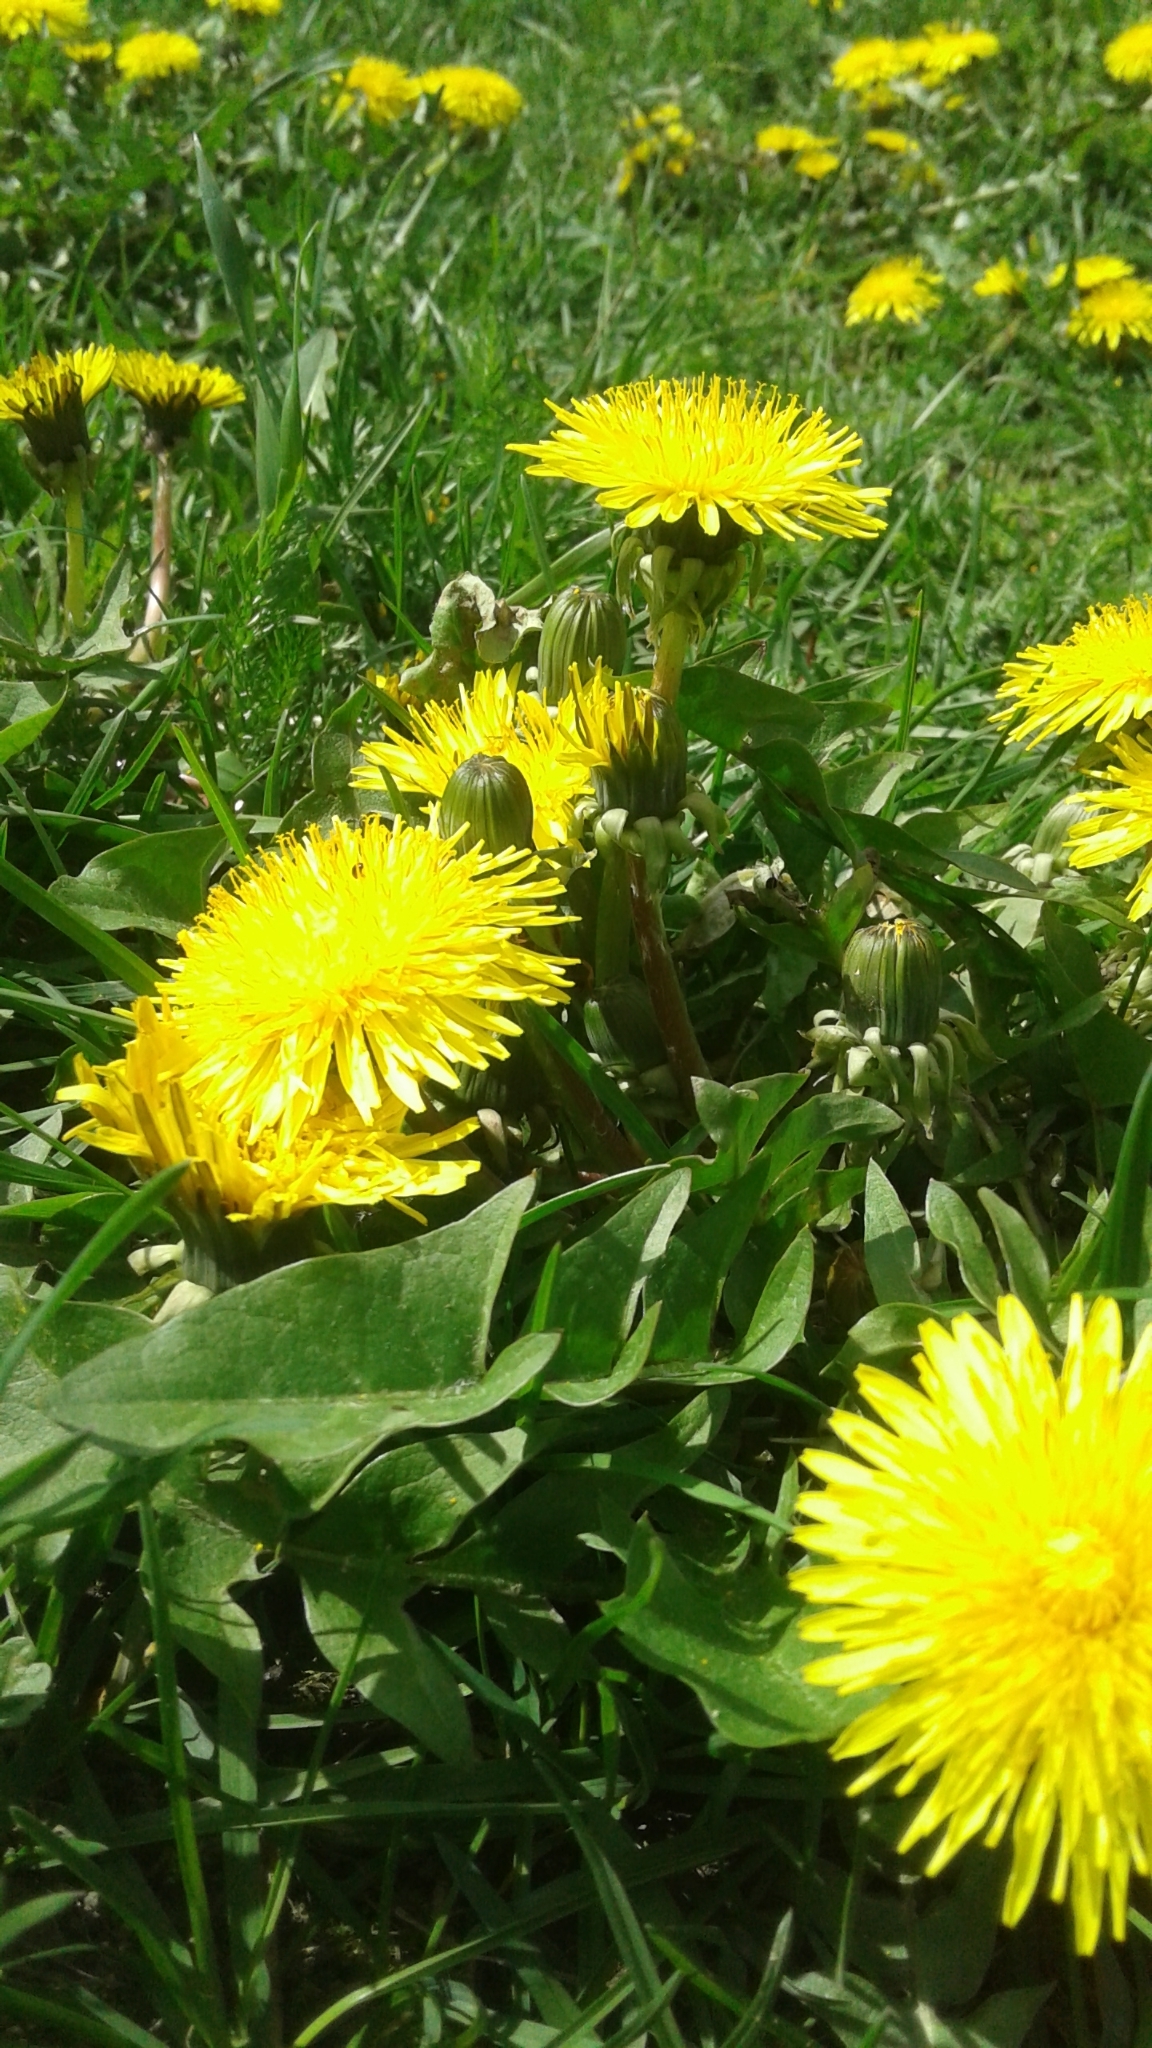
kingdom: Plantae
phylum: Tracheophyta
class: Magnoliopsida
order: Asterales
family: Asteraceae
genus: Taraxacum
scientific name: Taraxacum officinale
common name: Common dandelion
